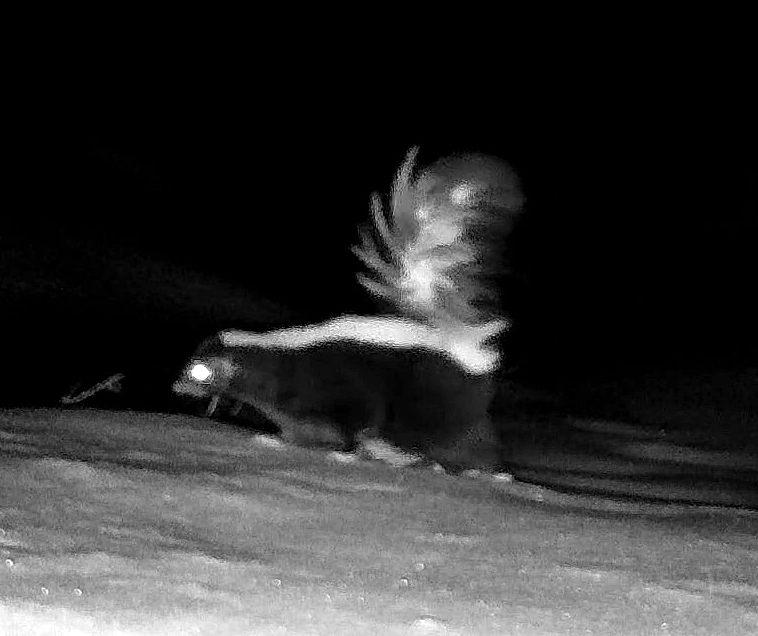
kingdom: Animalia
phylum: Chordata
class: Mammalia
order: Carnivora
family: Mephitidae
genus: Mephitis
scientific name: Mephitis mephitis
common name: Striped skunk
